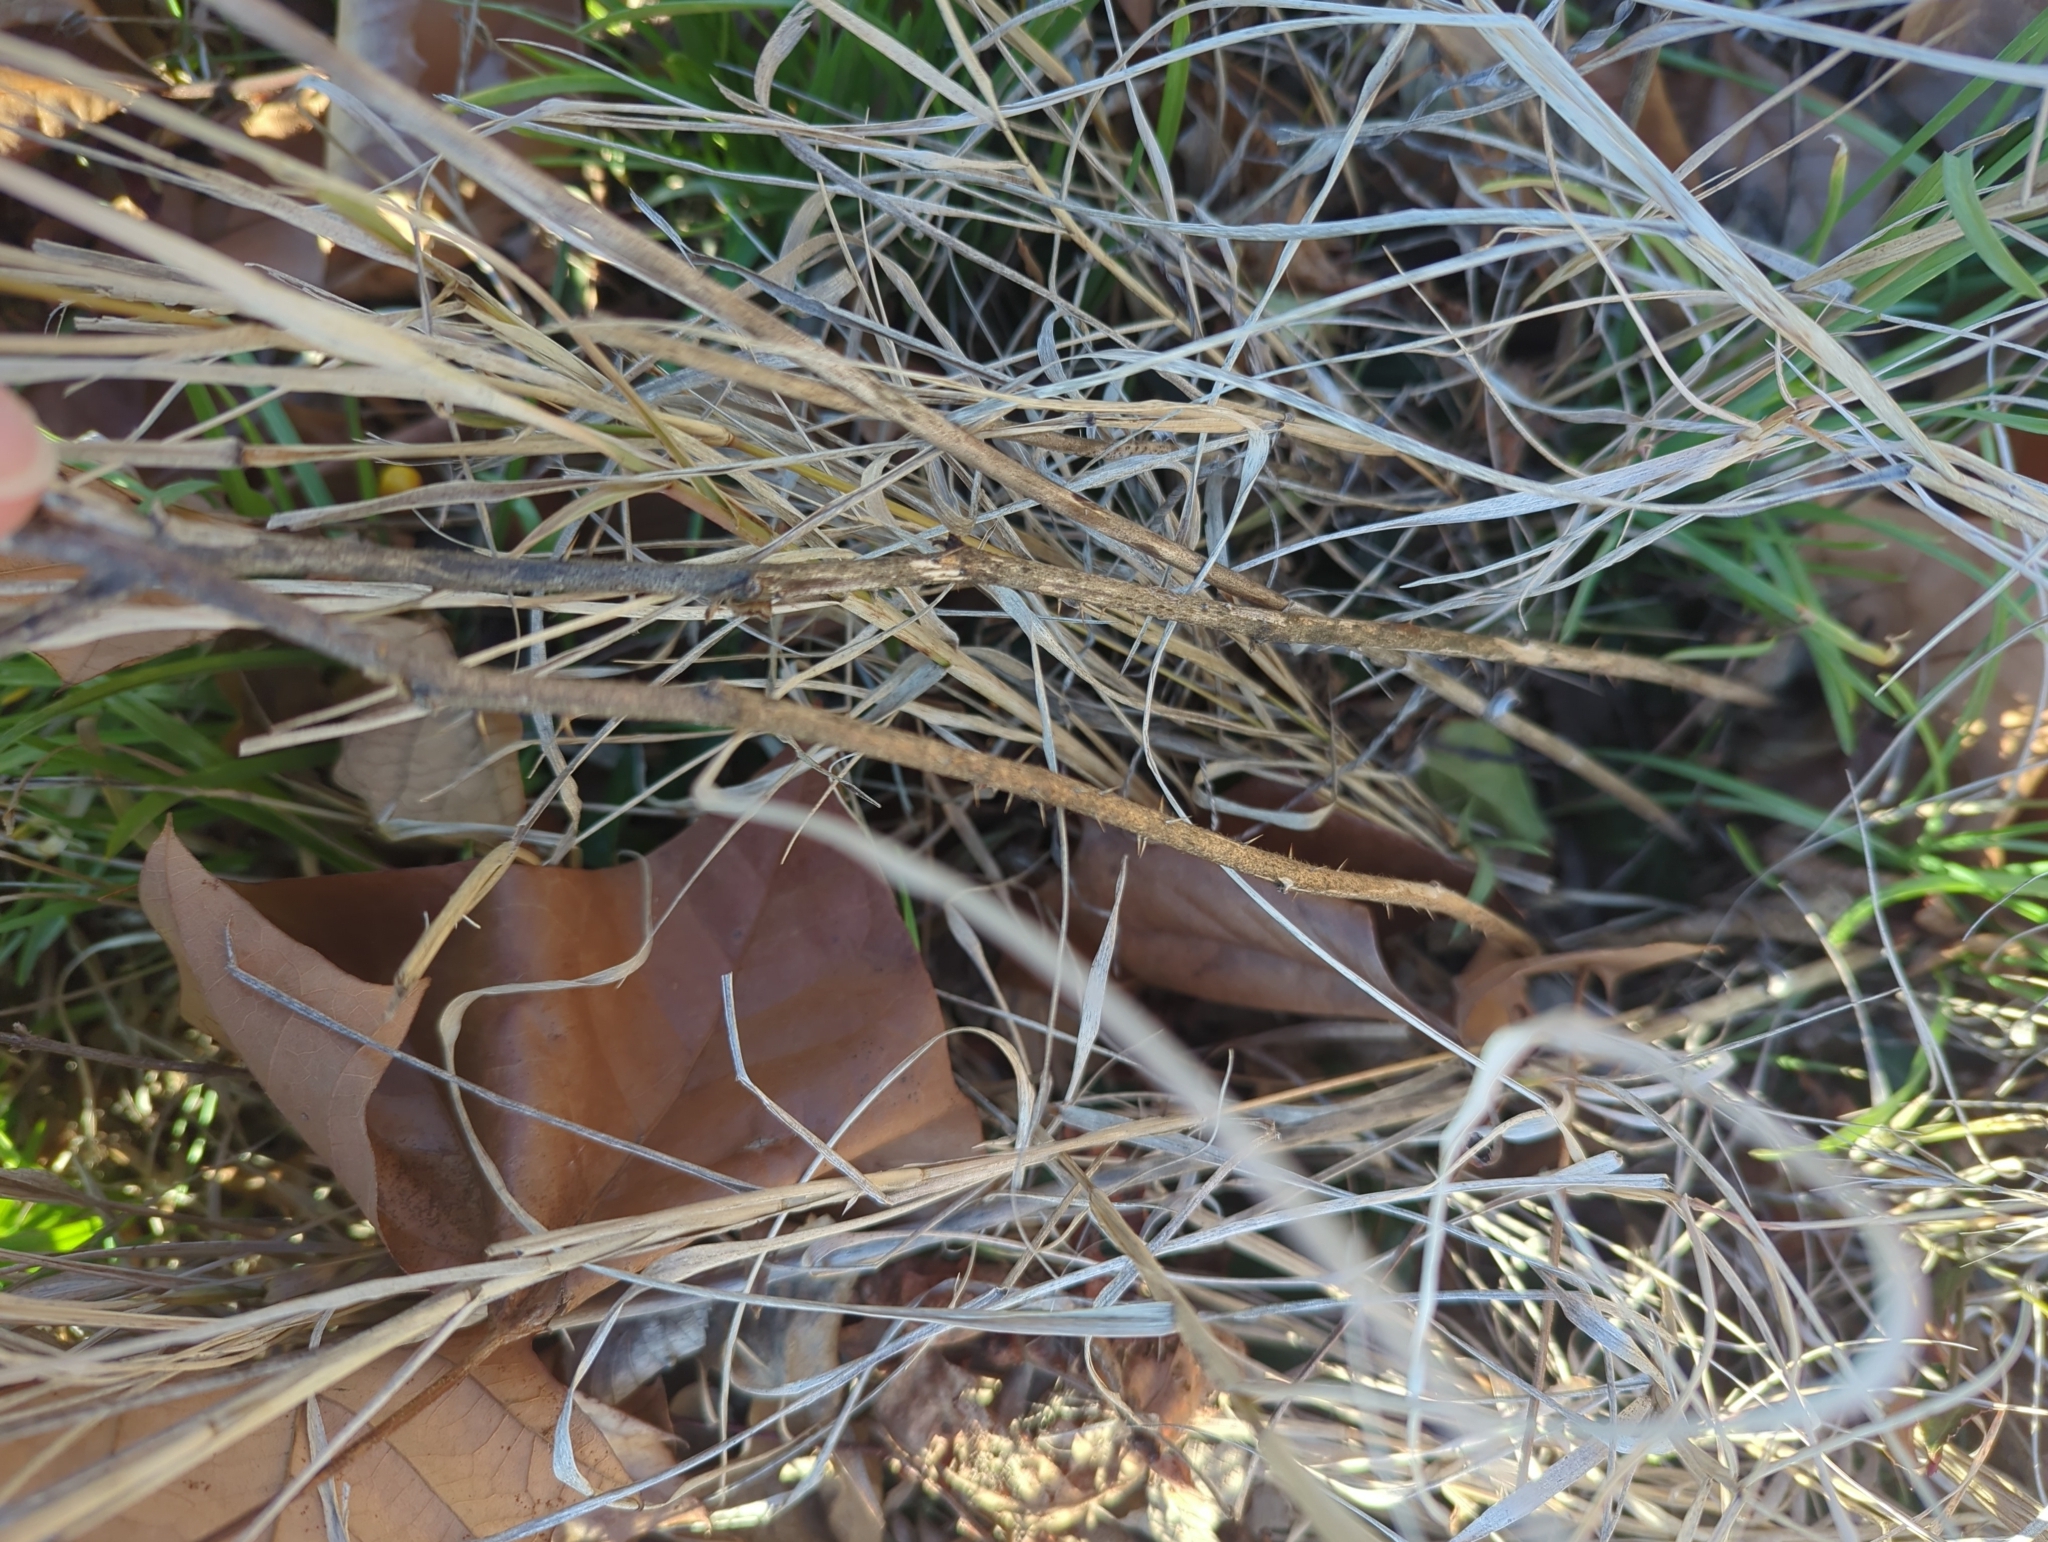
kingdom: Plantae
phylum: Tracheophyta
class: Magnoliopsida
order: Solanales
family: Solanaceae
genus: Solanum
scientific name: Solanum carolinense
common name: Horse-nettle
